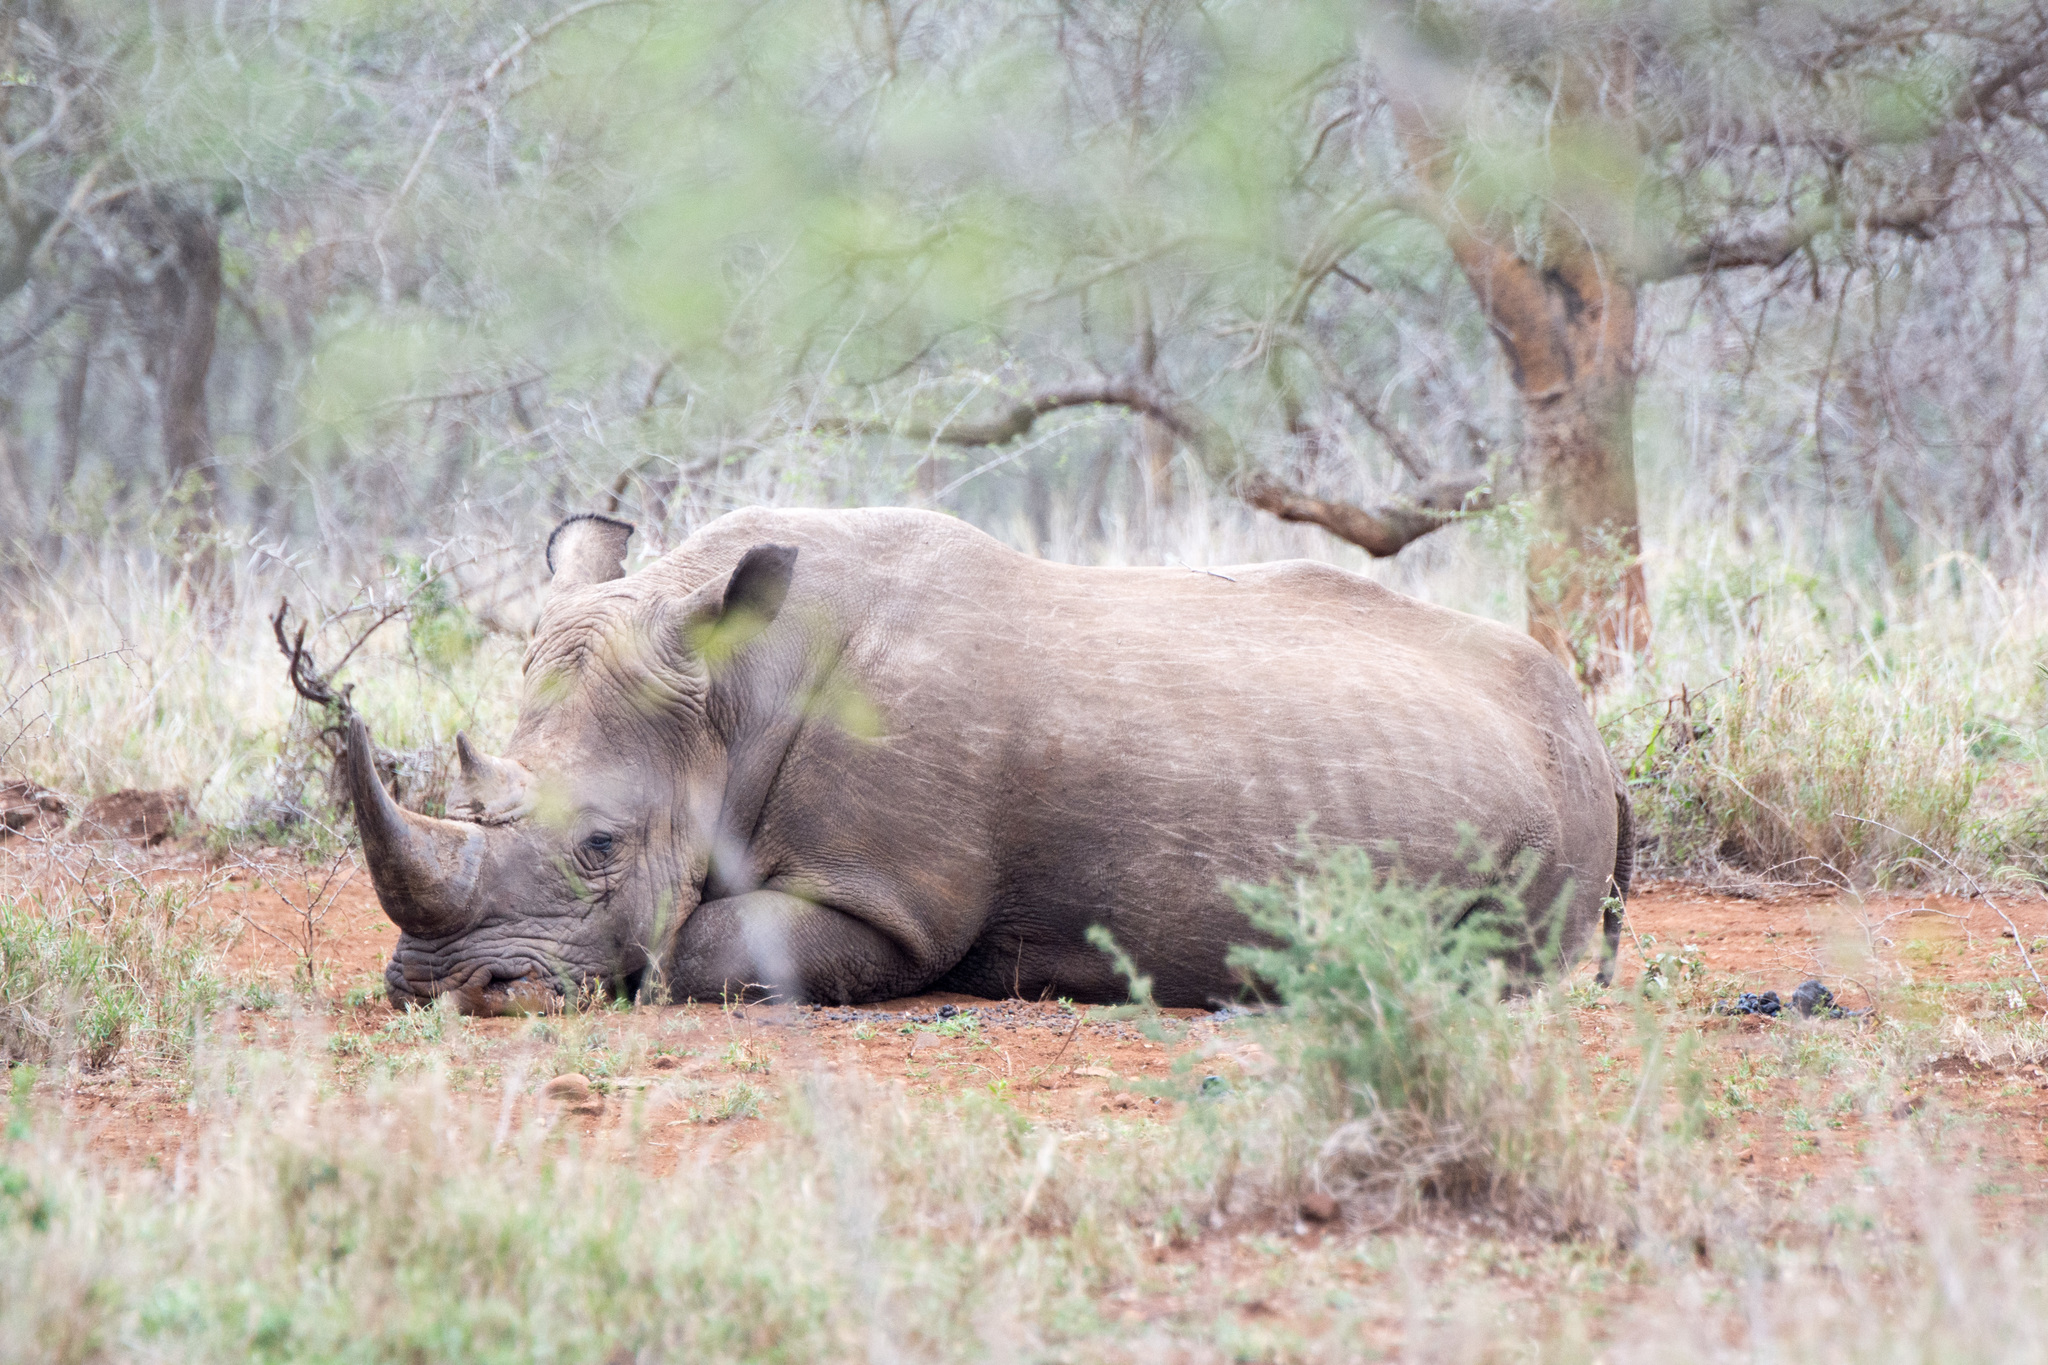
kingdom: Animalia
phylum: Chordata
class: Mammalia
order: Perissodactyla
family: Rhinocerotidae
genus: Ceratotherium
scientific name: Ceratotherium simum
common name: White rhinoceros
